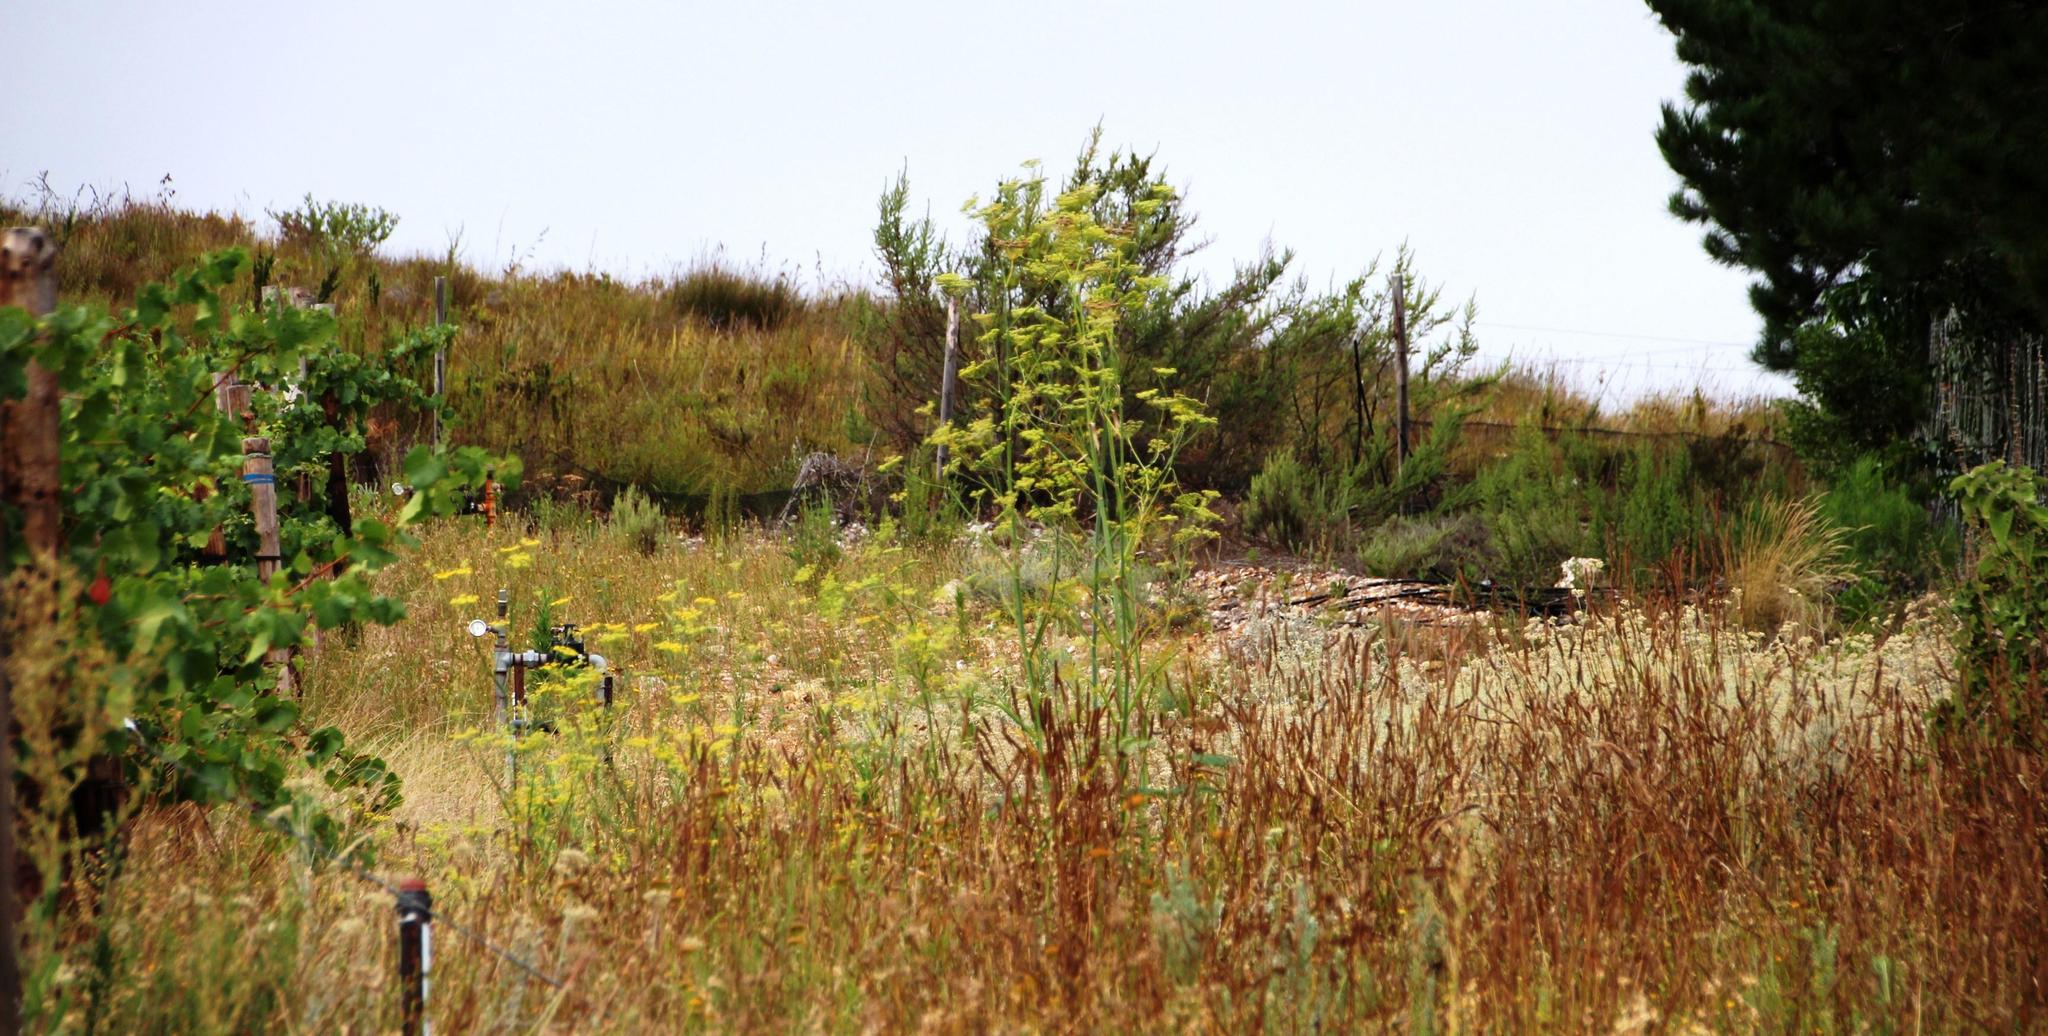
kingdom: Plantae
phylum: Tracheophyta
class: Magnoliopsida
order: Apiales
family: Apiaceae
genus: Foeniculum
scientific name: Foeniculum vulgare
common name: Fennel
